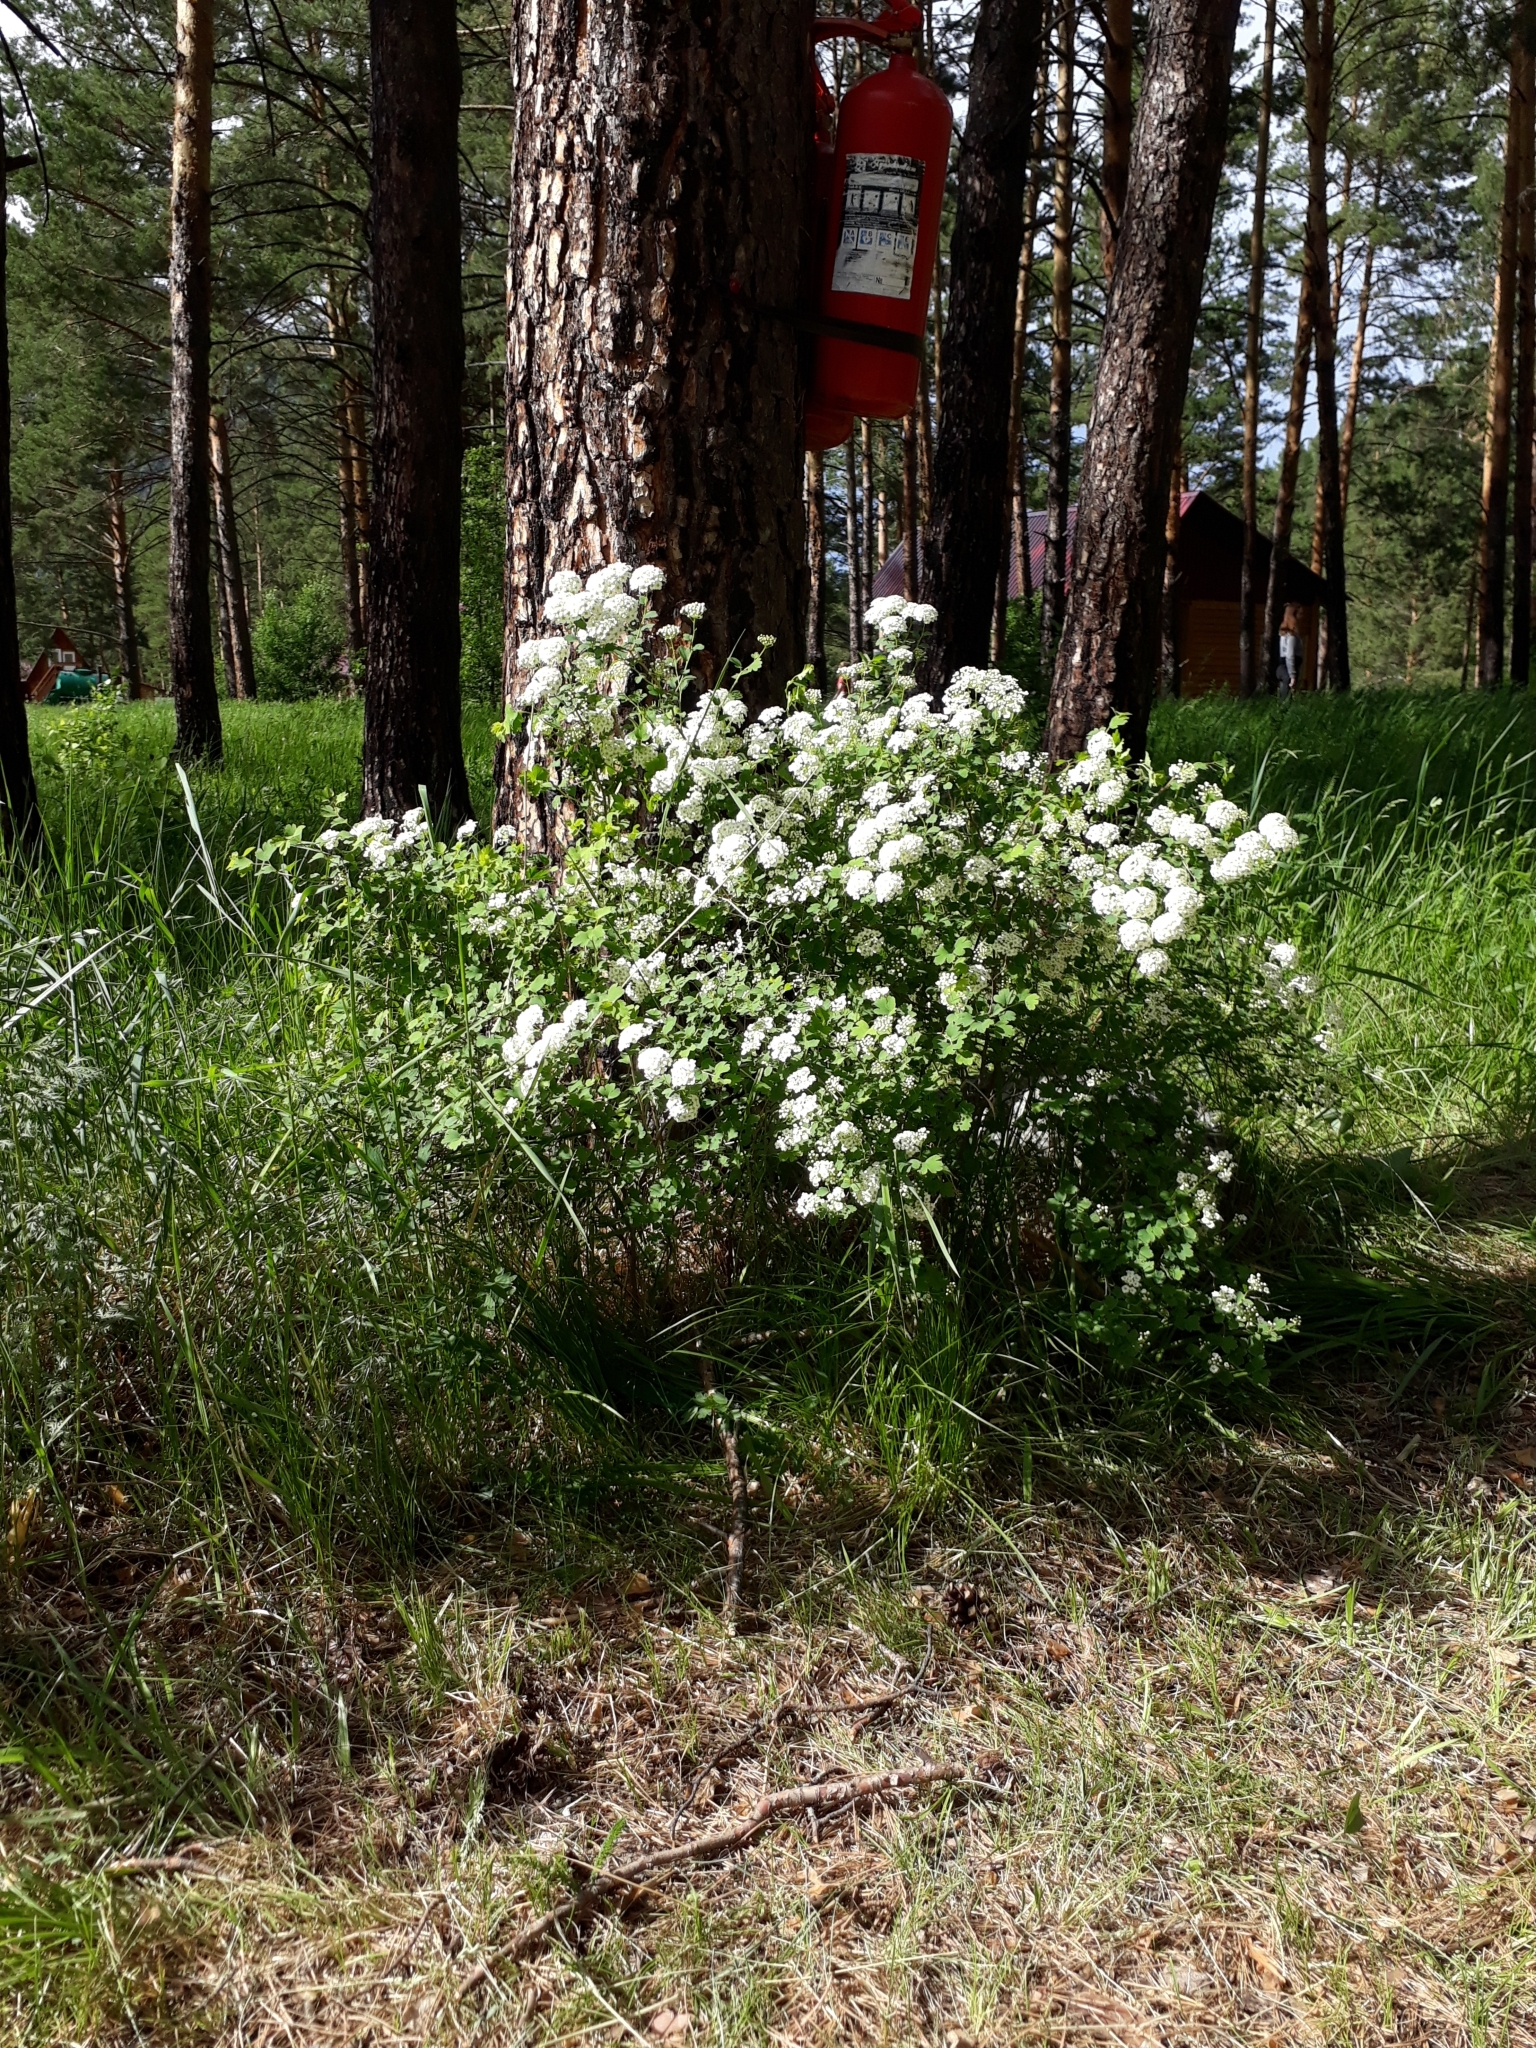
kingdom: Plantae
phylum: Tracheophyta
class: Magnoliopsida
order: Rosales
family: Rosaceae
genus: Spiraea
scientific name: Spiraea trilobata
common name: Asian meadowsweet
